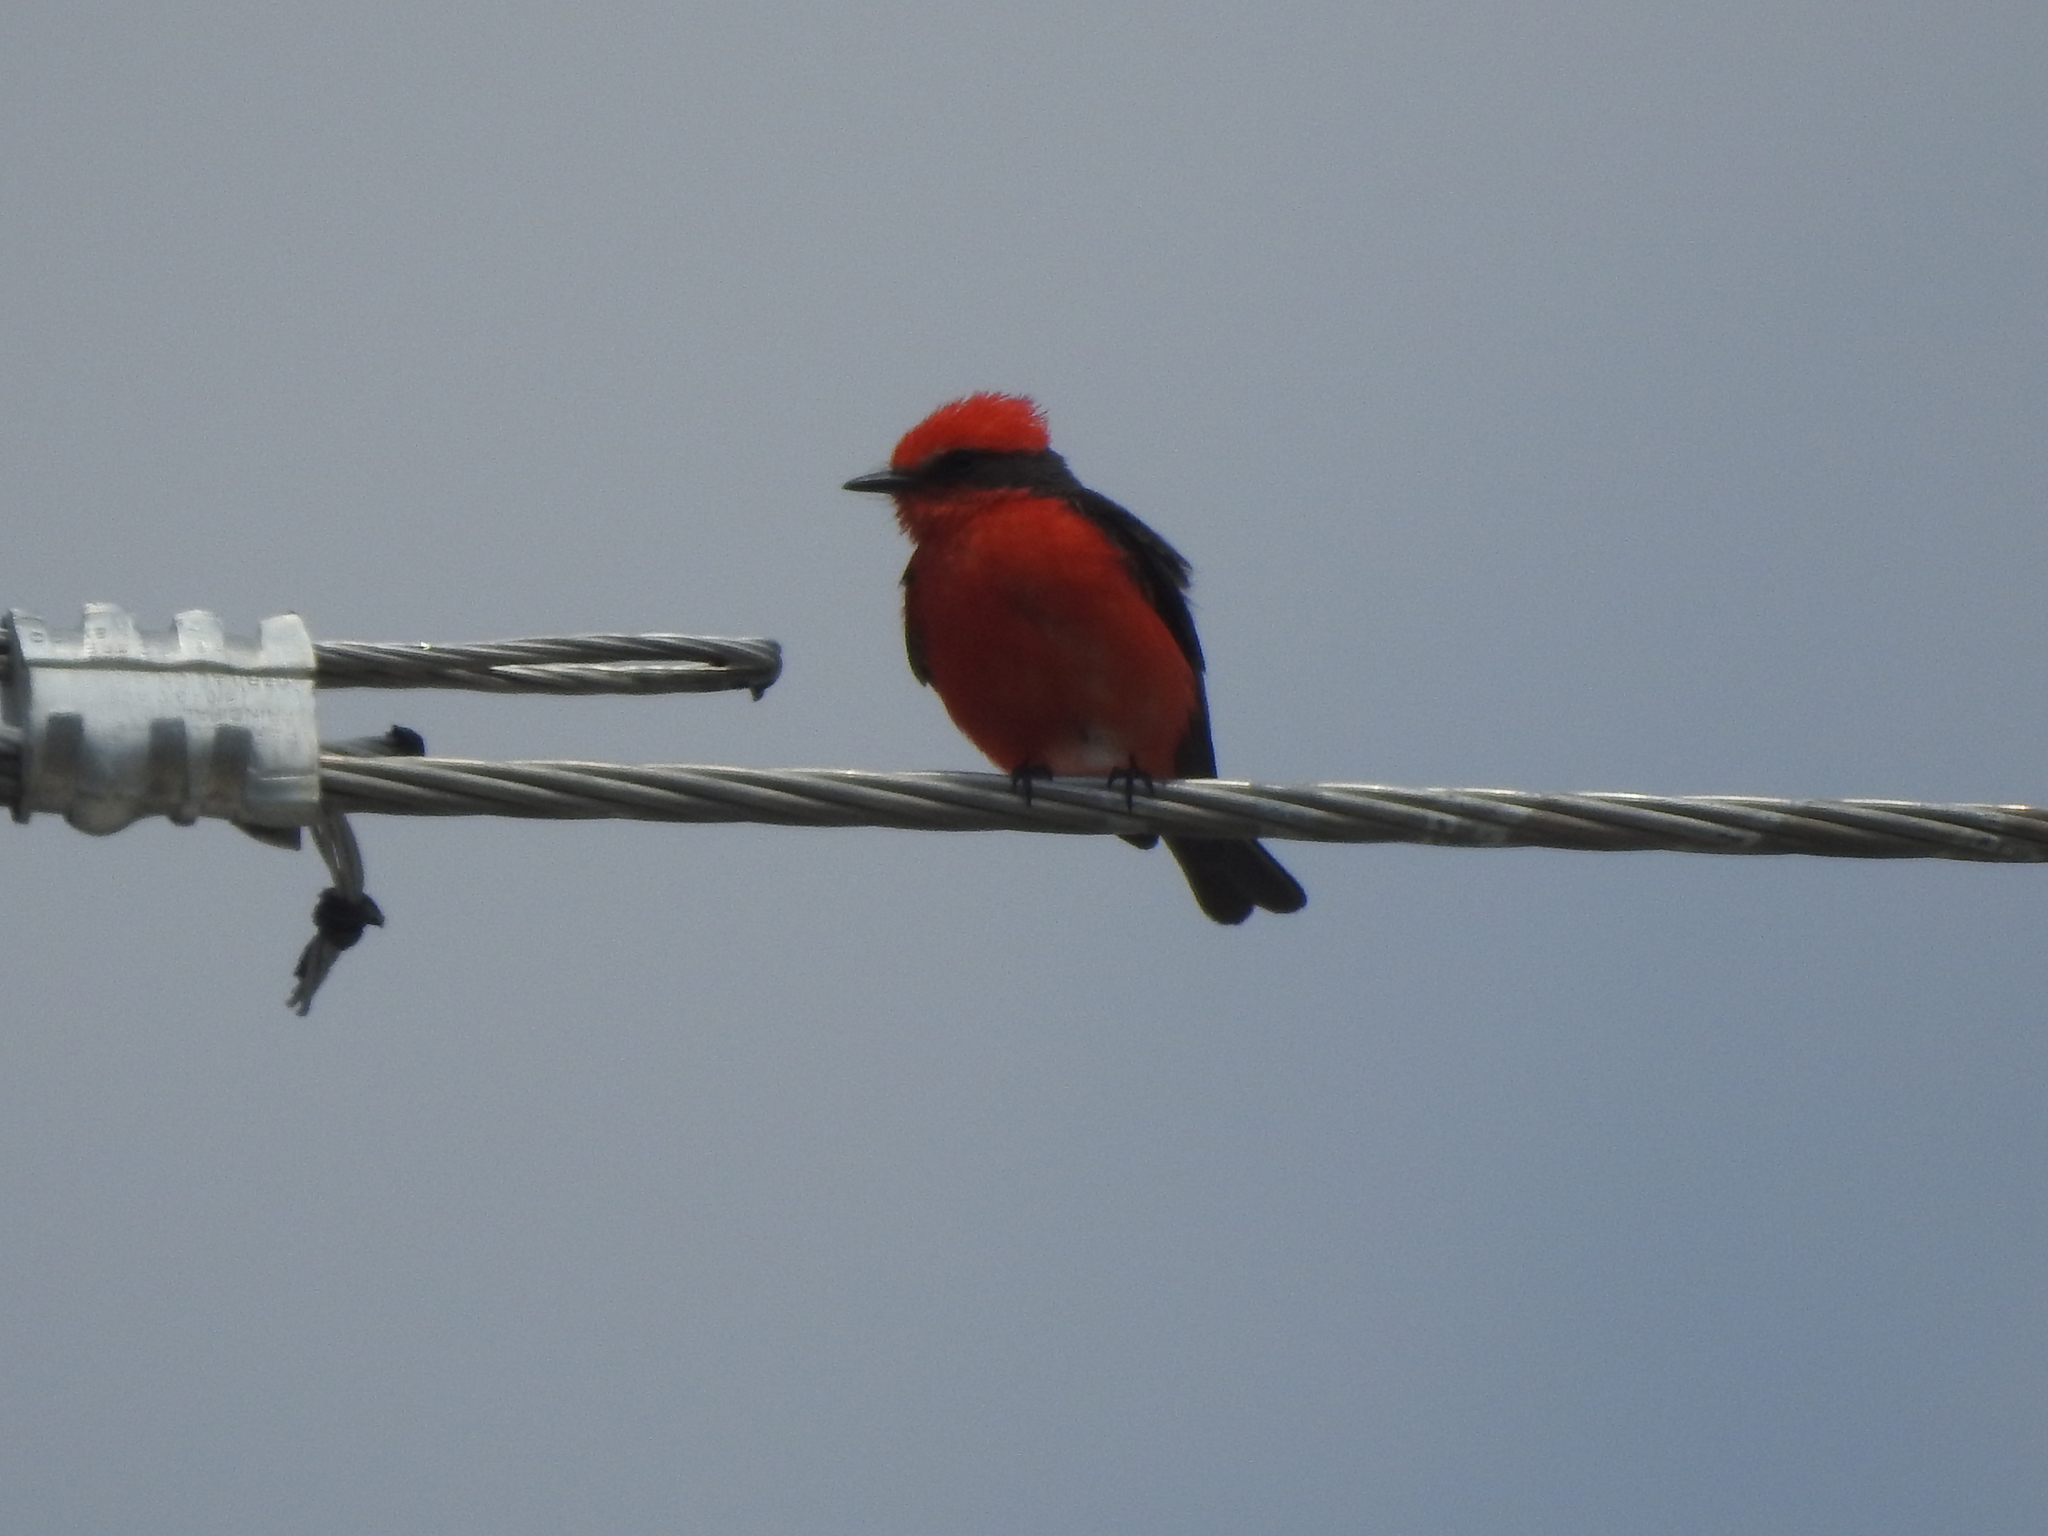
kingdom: Animalia
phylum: Chordata
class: Aves
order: Passeriformes
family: Tyrannidae
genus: Pyrocephalus
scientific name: Pyrocephalus rubinus
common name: Vermilion flycatcher
